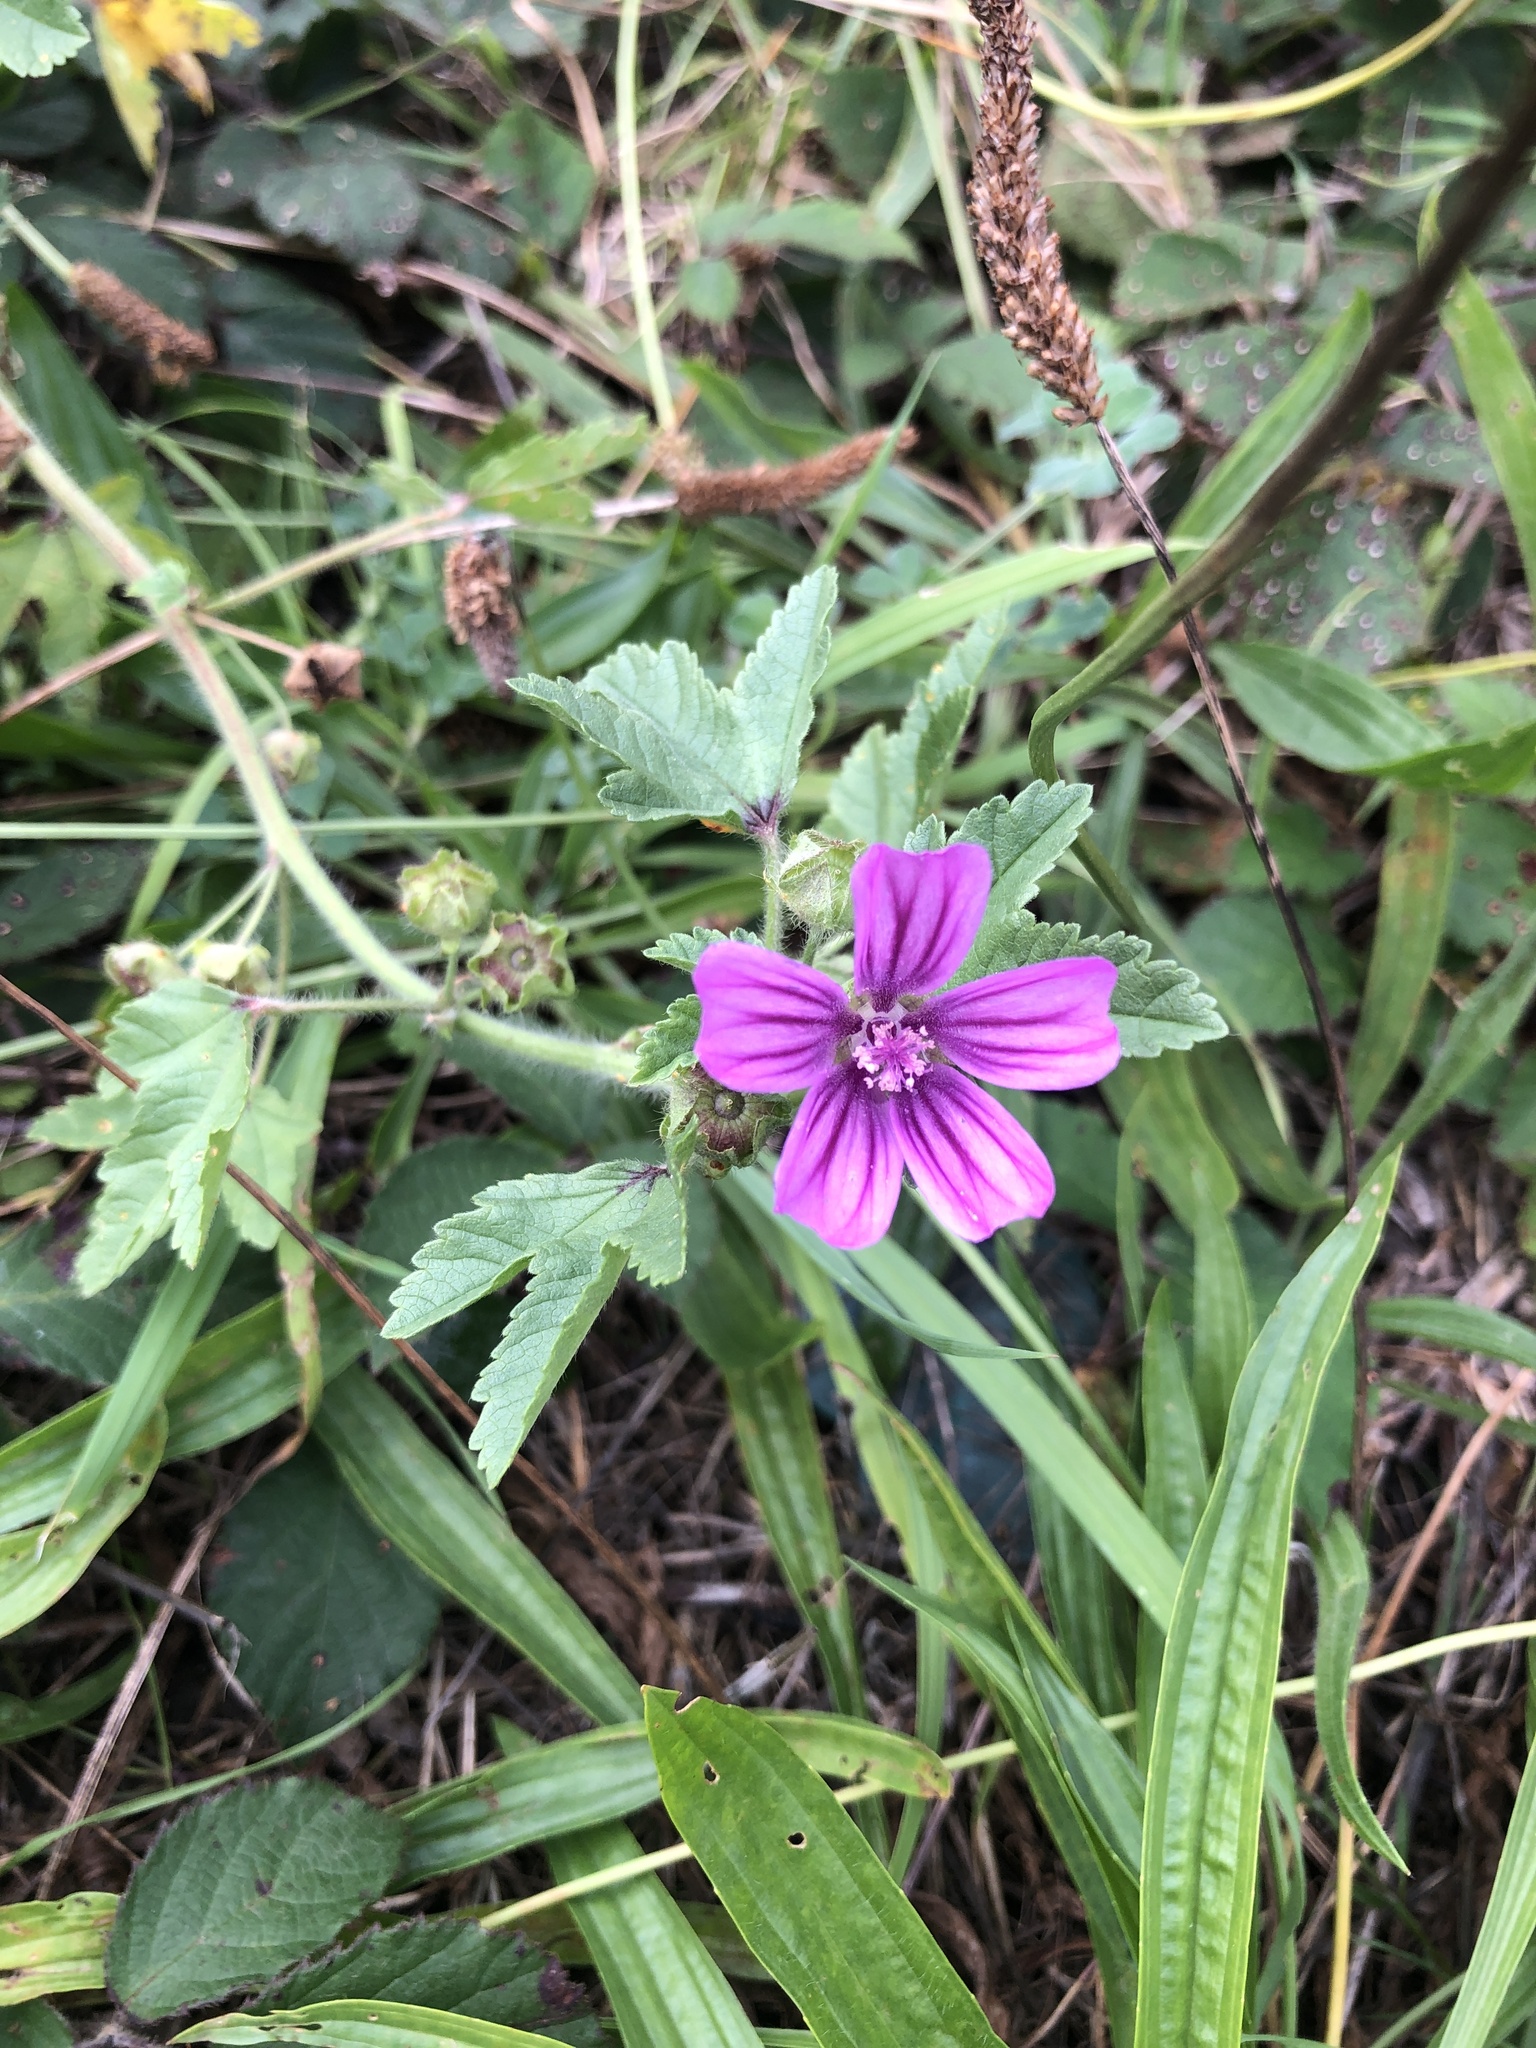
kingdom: Plantae
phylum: Tracheophyta
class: Magnoliopsida
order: Malvales
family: Malvaceae
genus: Malva
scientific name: Malva sylvestris
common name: Common mallow
